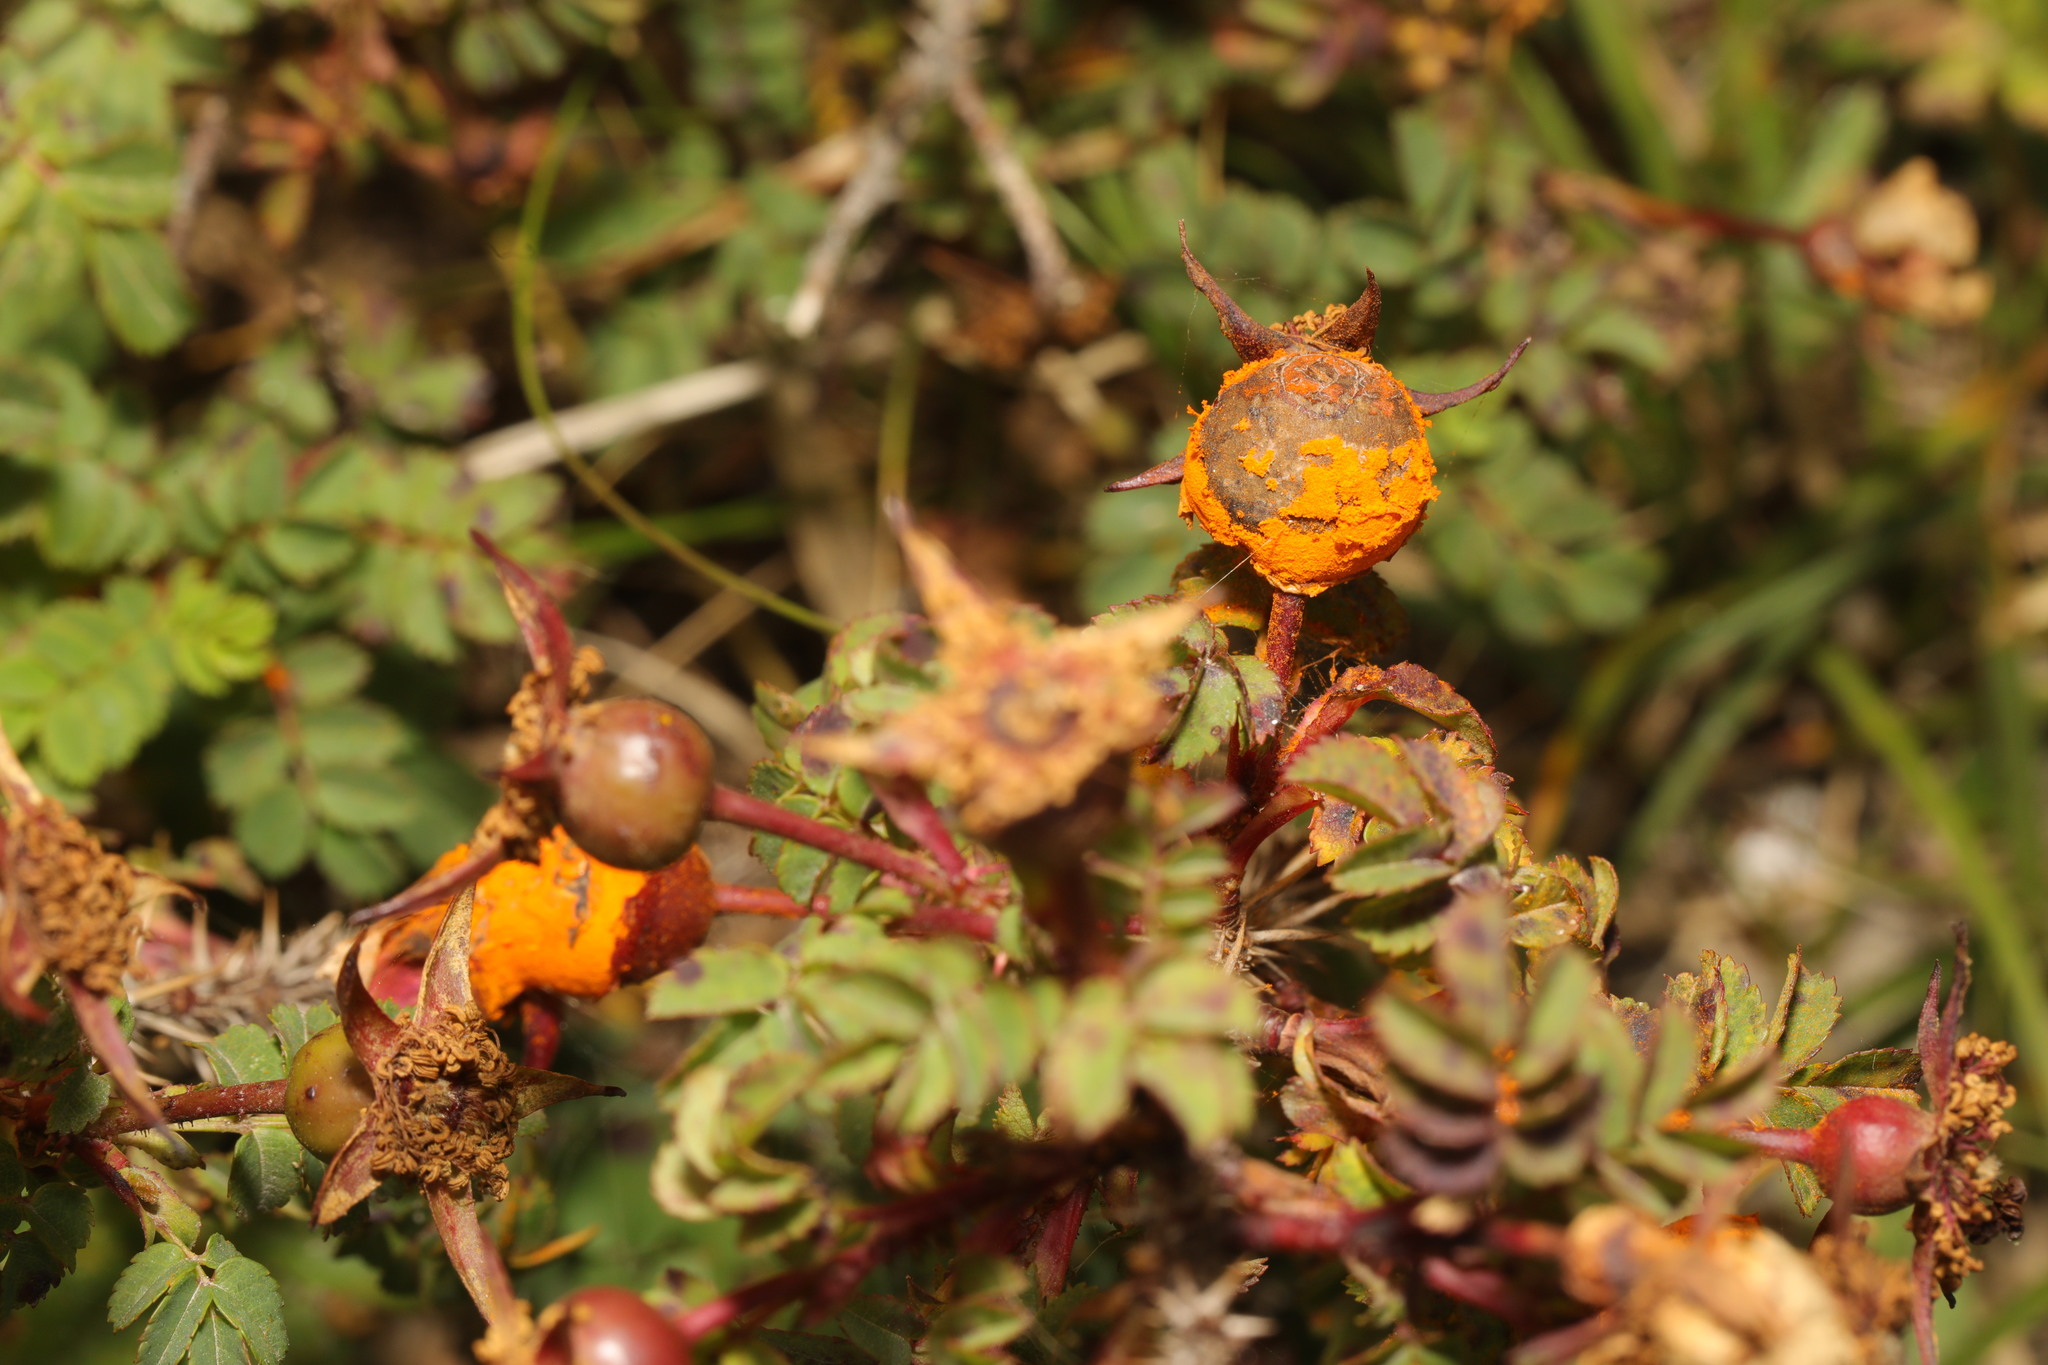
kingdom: Fungi
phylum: Basidiomycota
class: Pucciniomycetes
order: Pucciniales
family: Phragmidiaceae
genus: Phragmidium
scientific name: Phragmidium rosae-pimpinellifoliae
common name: Burnet rose rust
